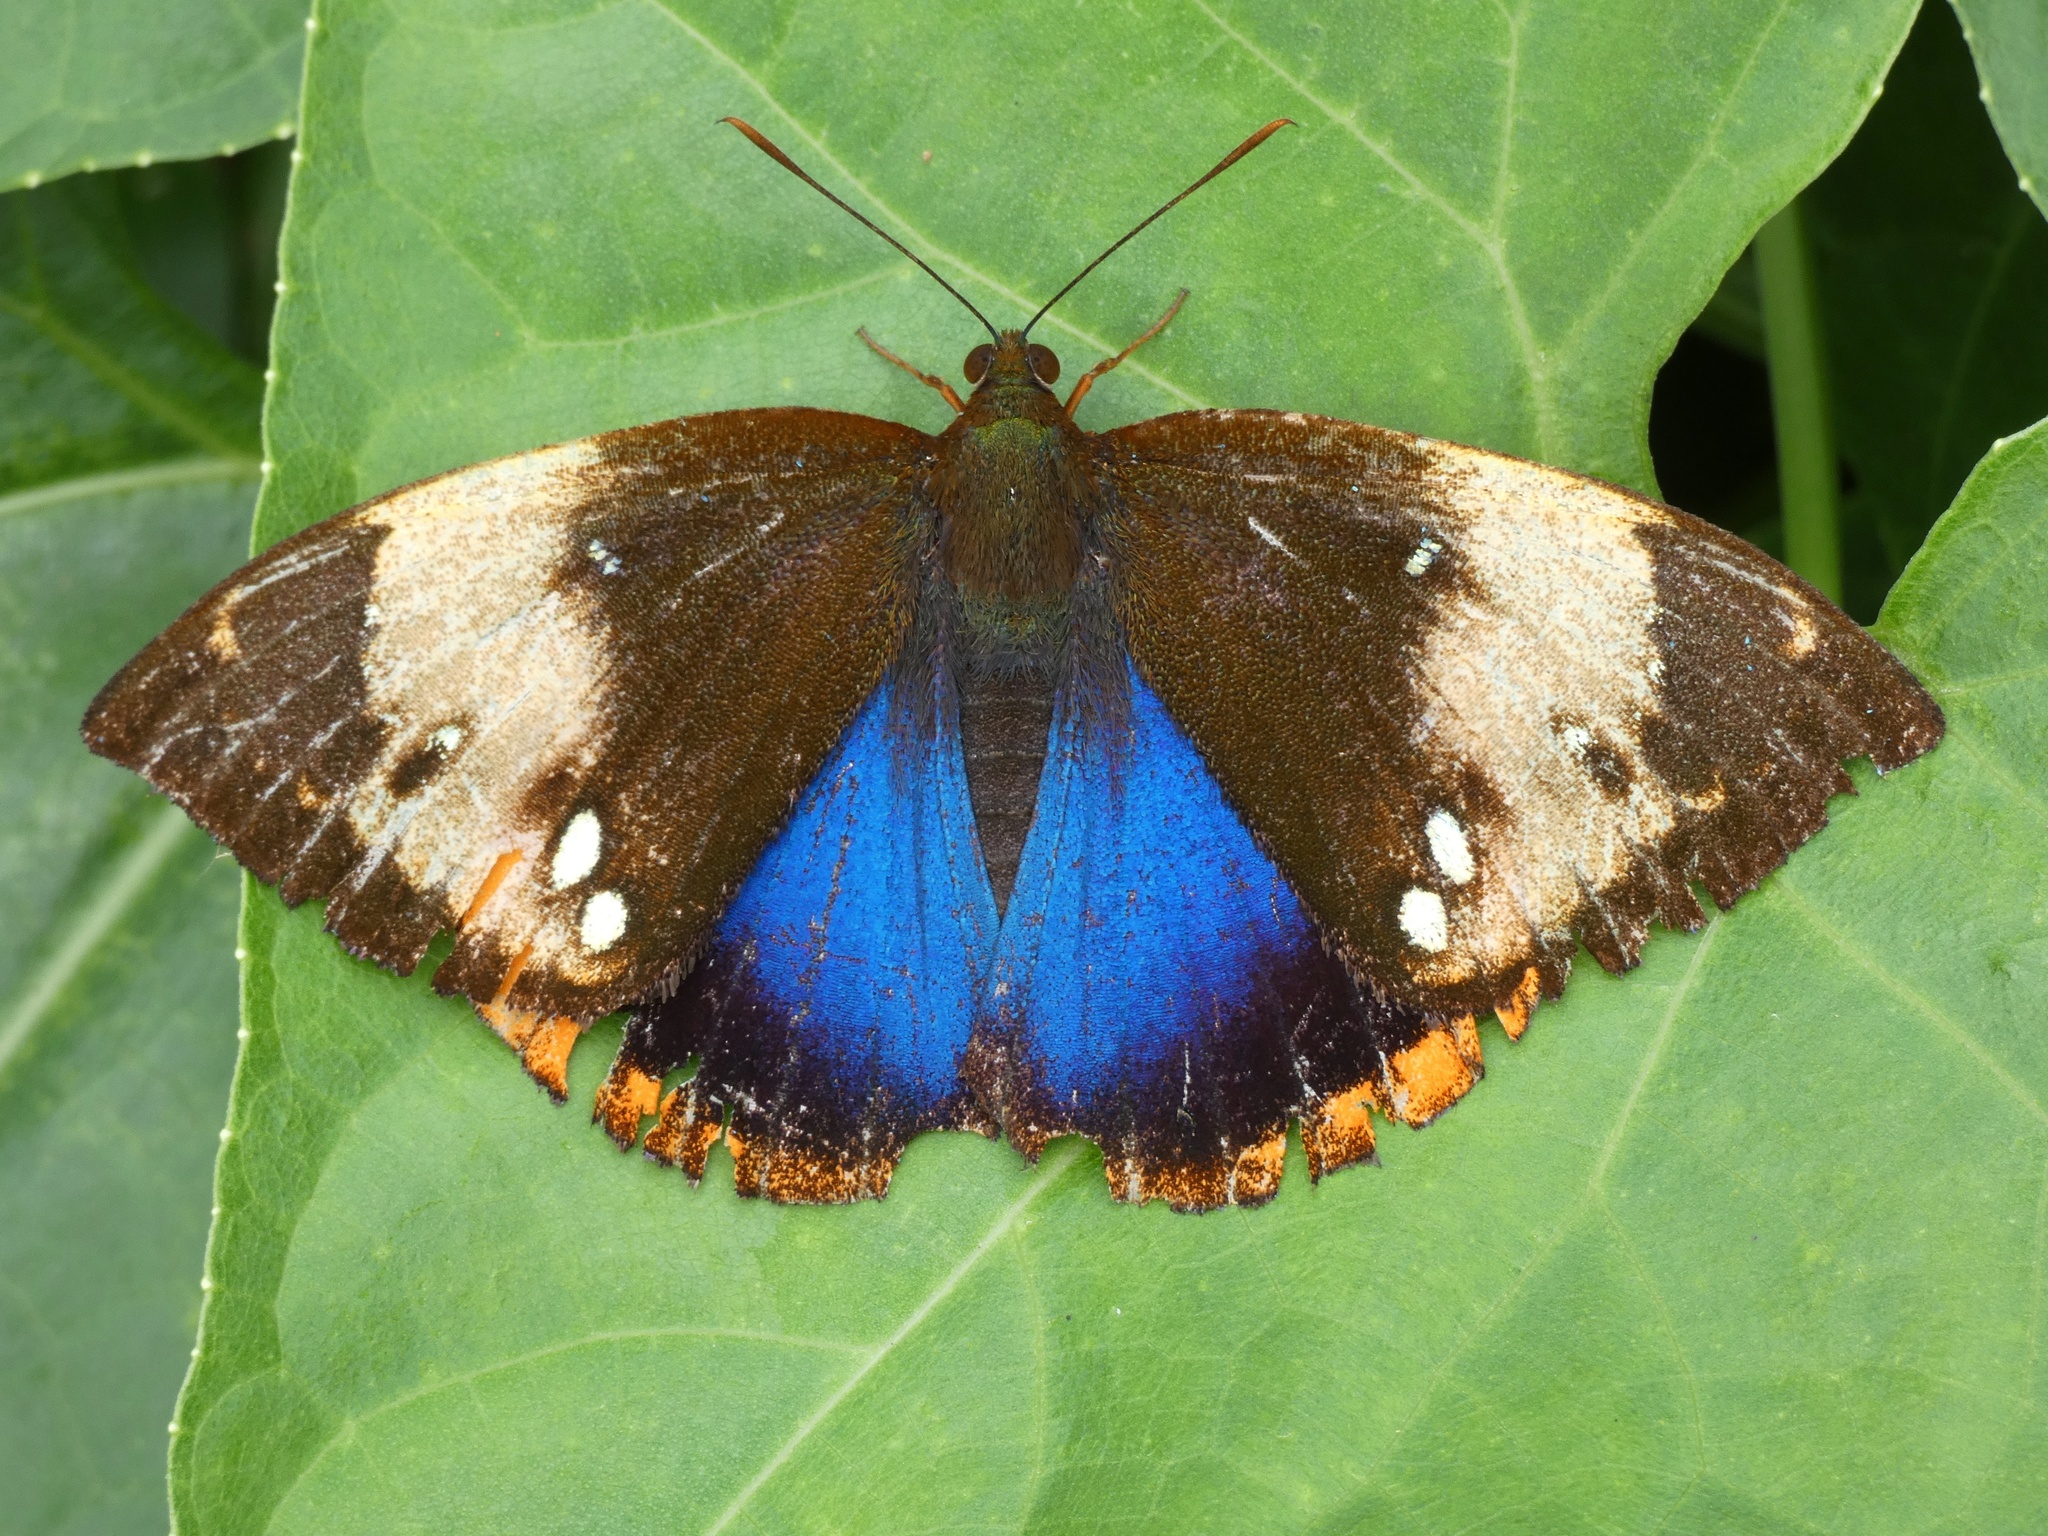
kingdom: Animalia
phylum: Arthropoda
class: Insecta
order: Lepidoptera
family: Castniidae
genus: Divana
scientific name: Divana diva
